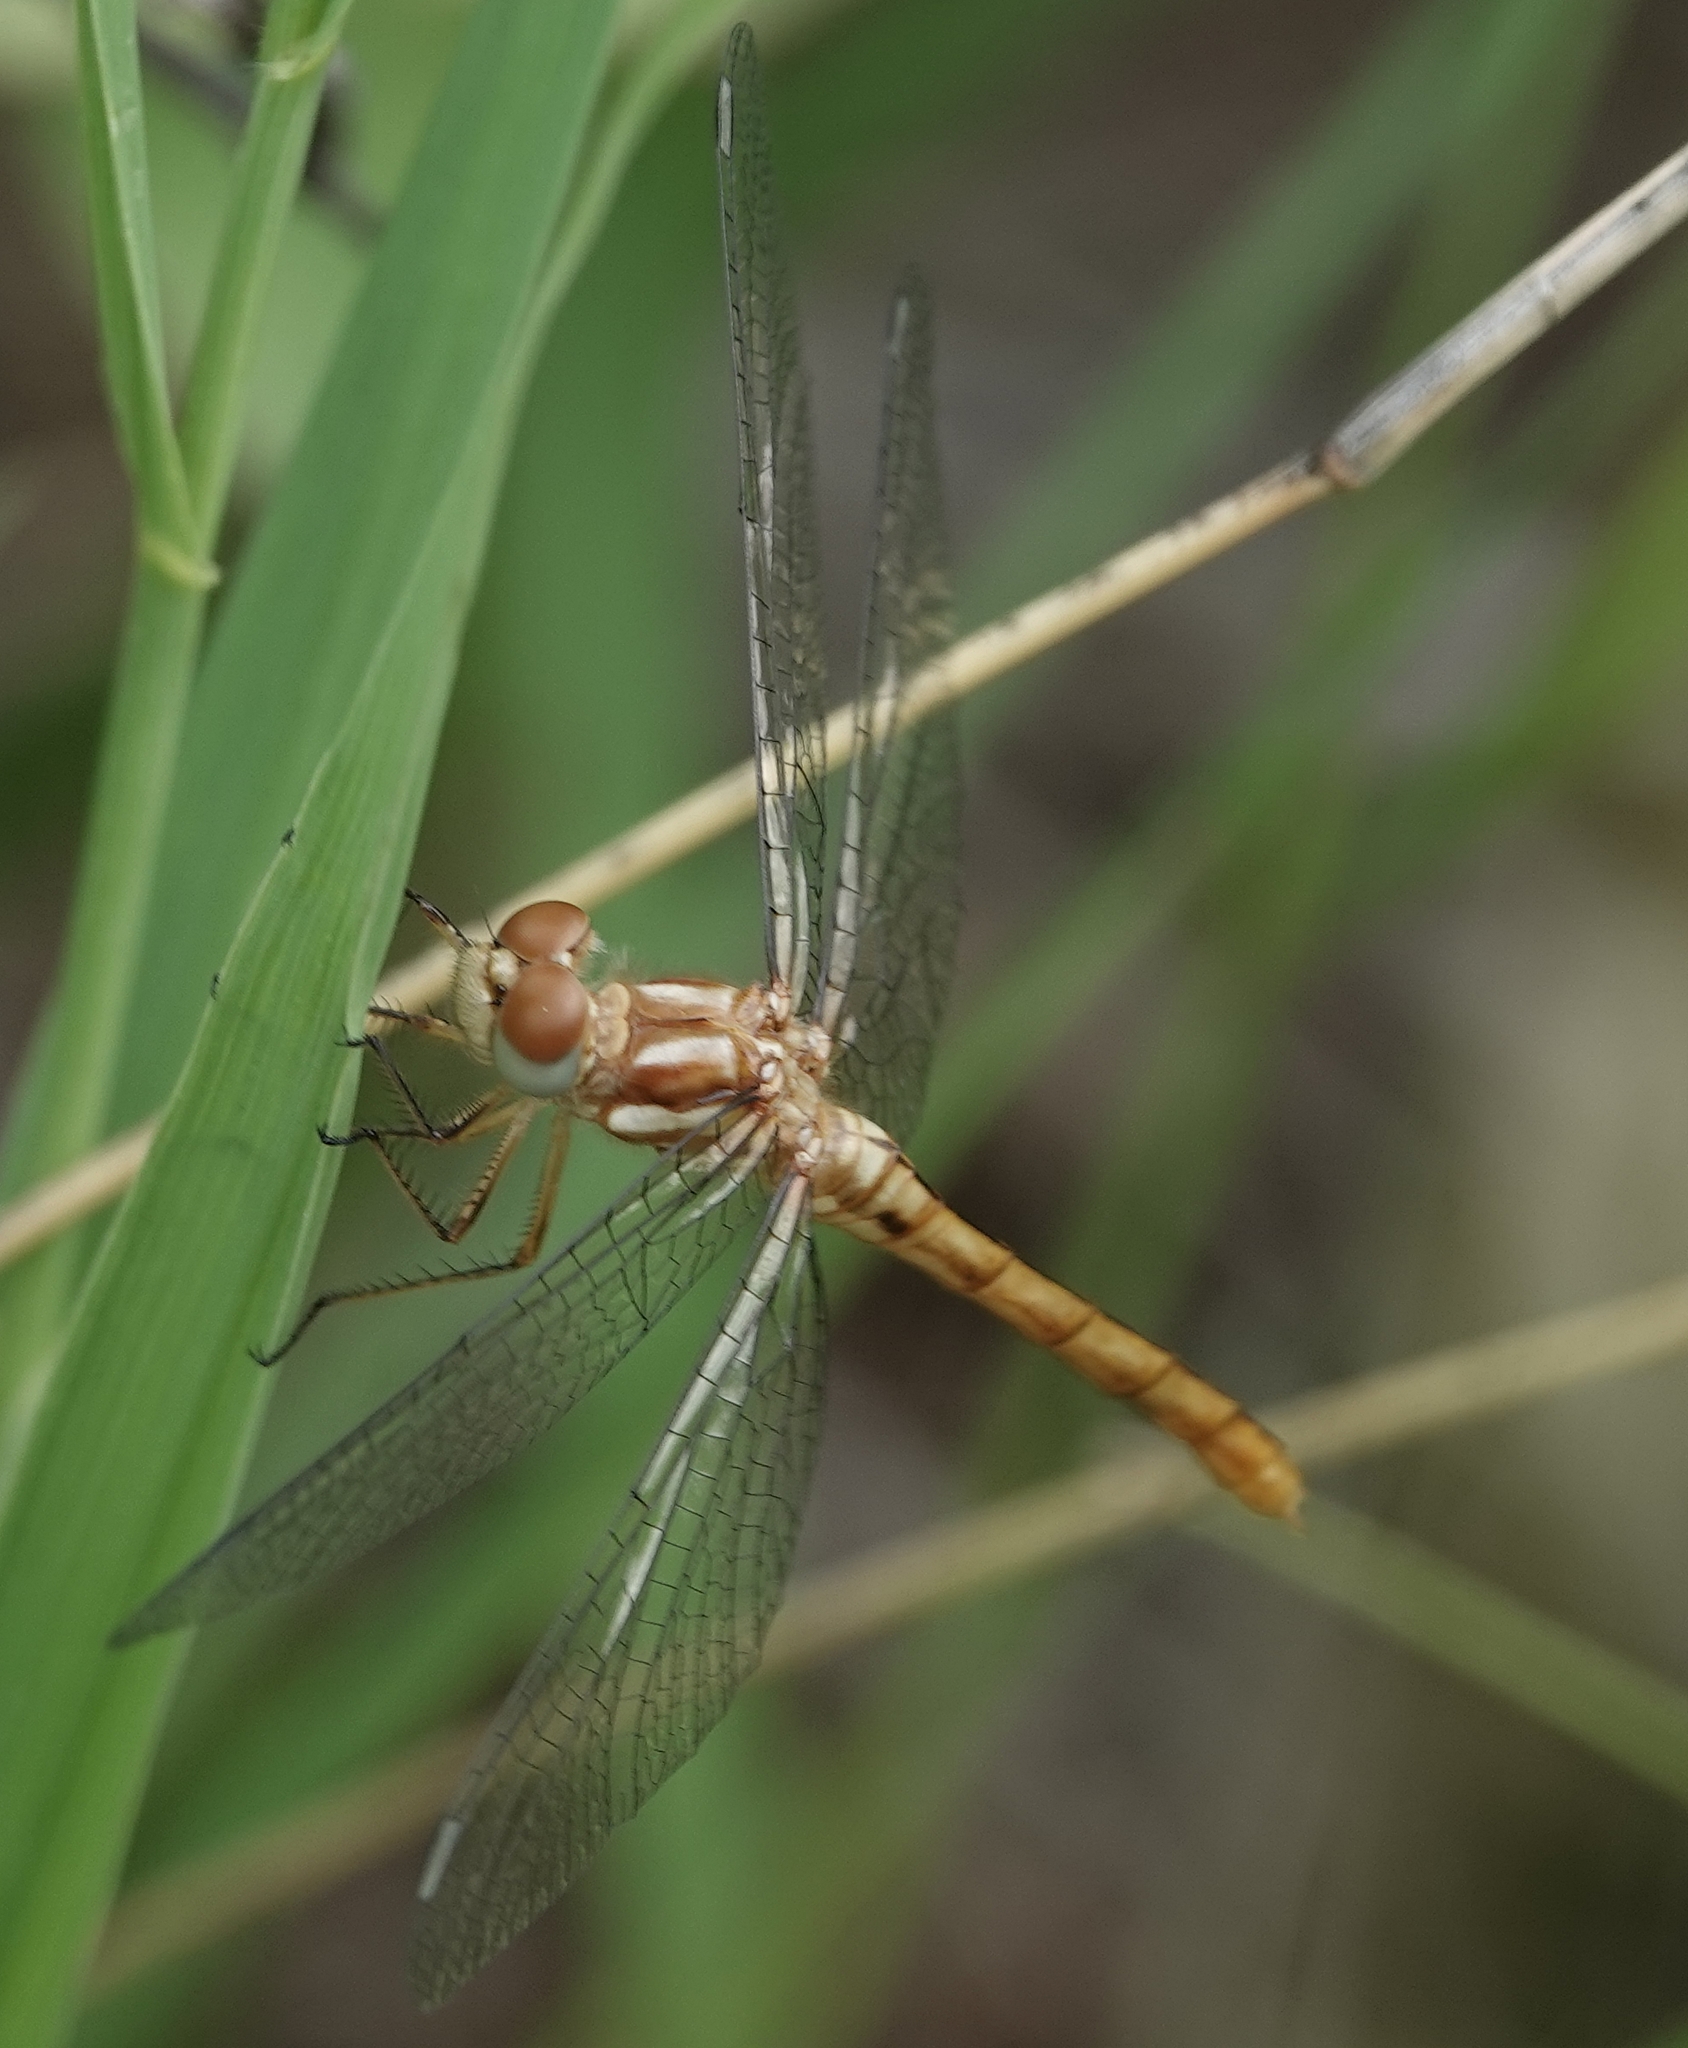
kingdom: Animalia
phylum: Arthropoda
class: Insecta
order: Odonata
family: Libellulidae
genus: Sympetrum
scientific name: Sympetrum pallipes
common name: Striped meadowhawk
